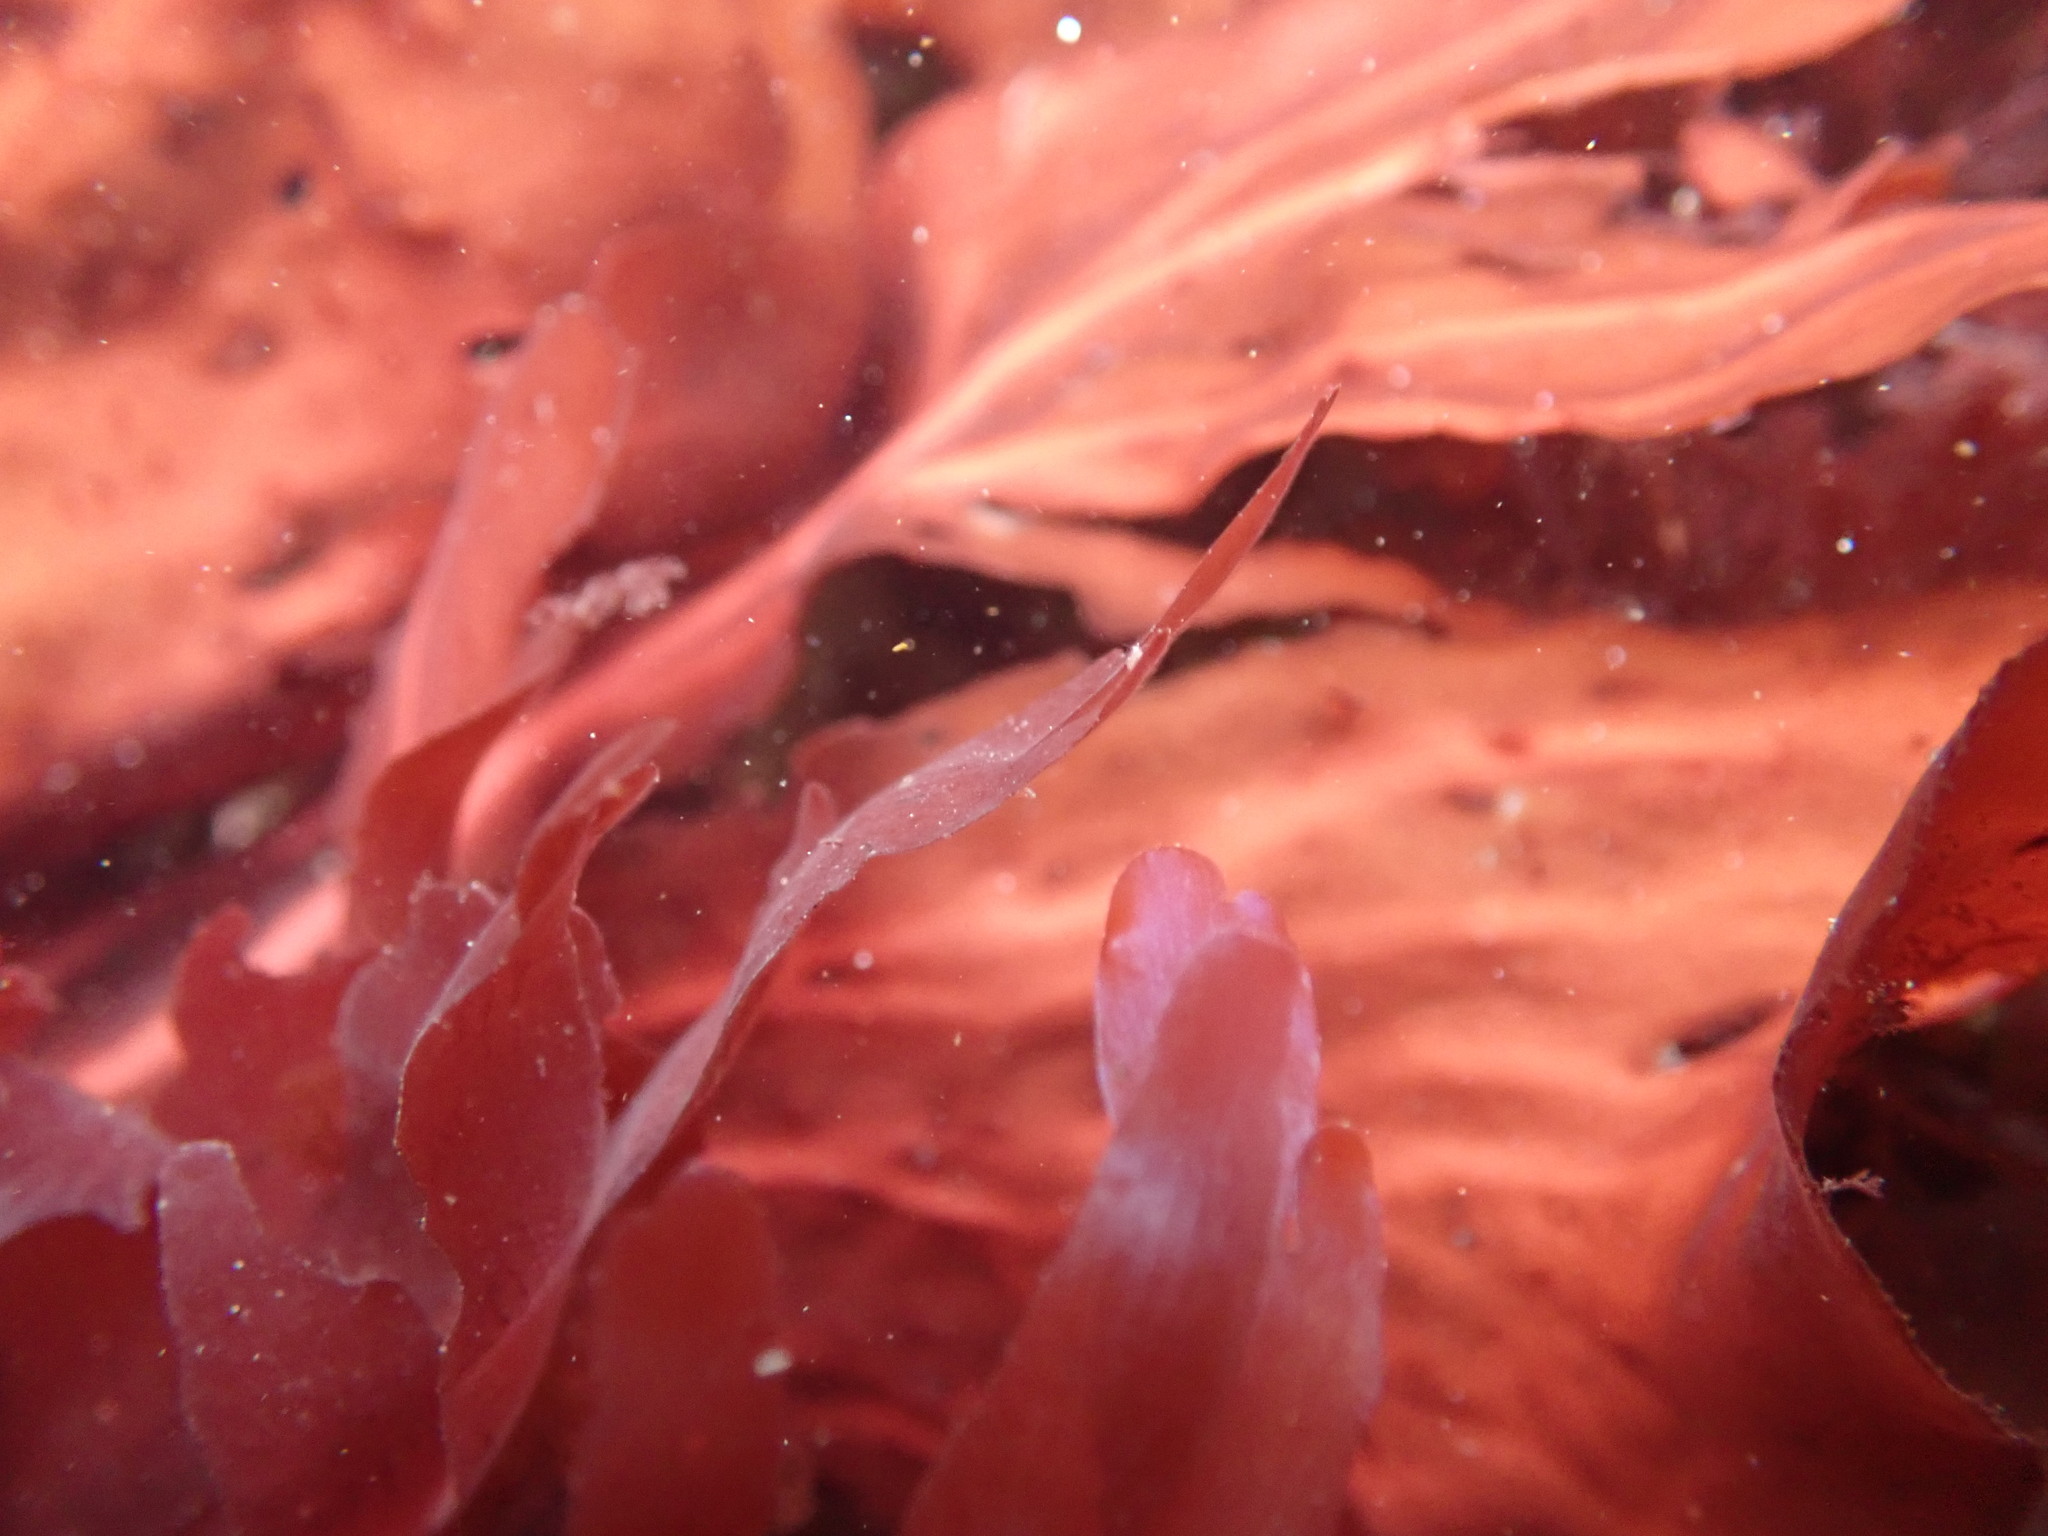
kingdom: Plantae
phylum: Rhodophyta
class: Florideophyceae
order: Gigartinales
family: Kallymeniaceae
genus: Erythrophyllum
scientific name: Erythrophyllum delesserioides
